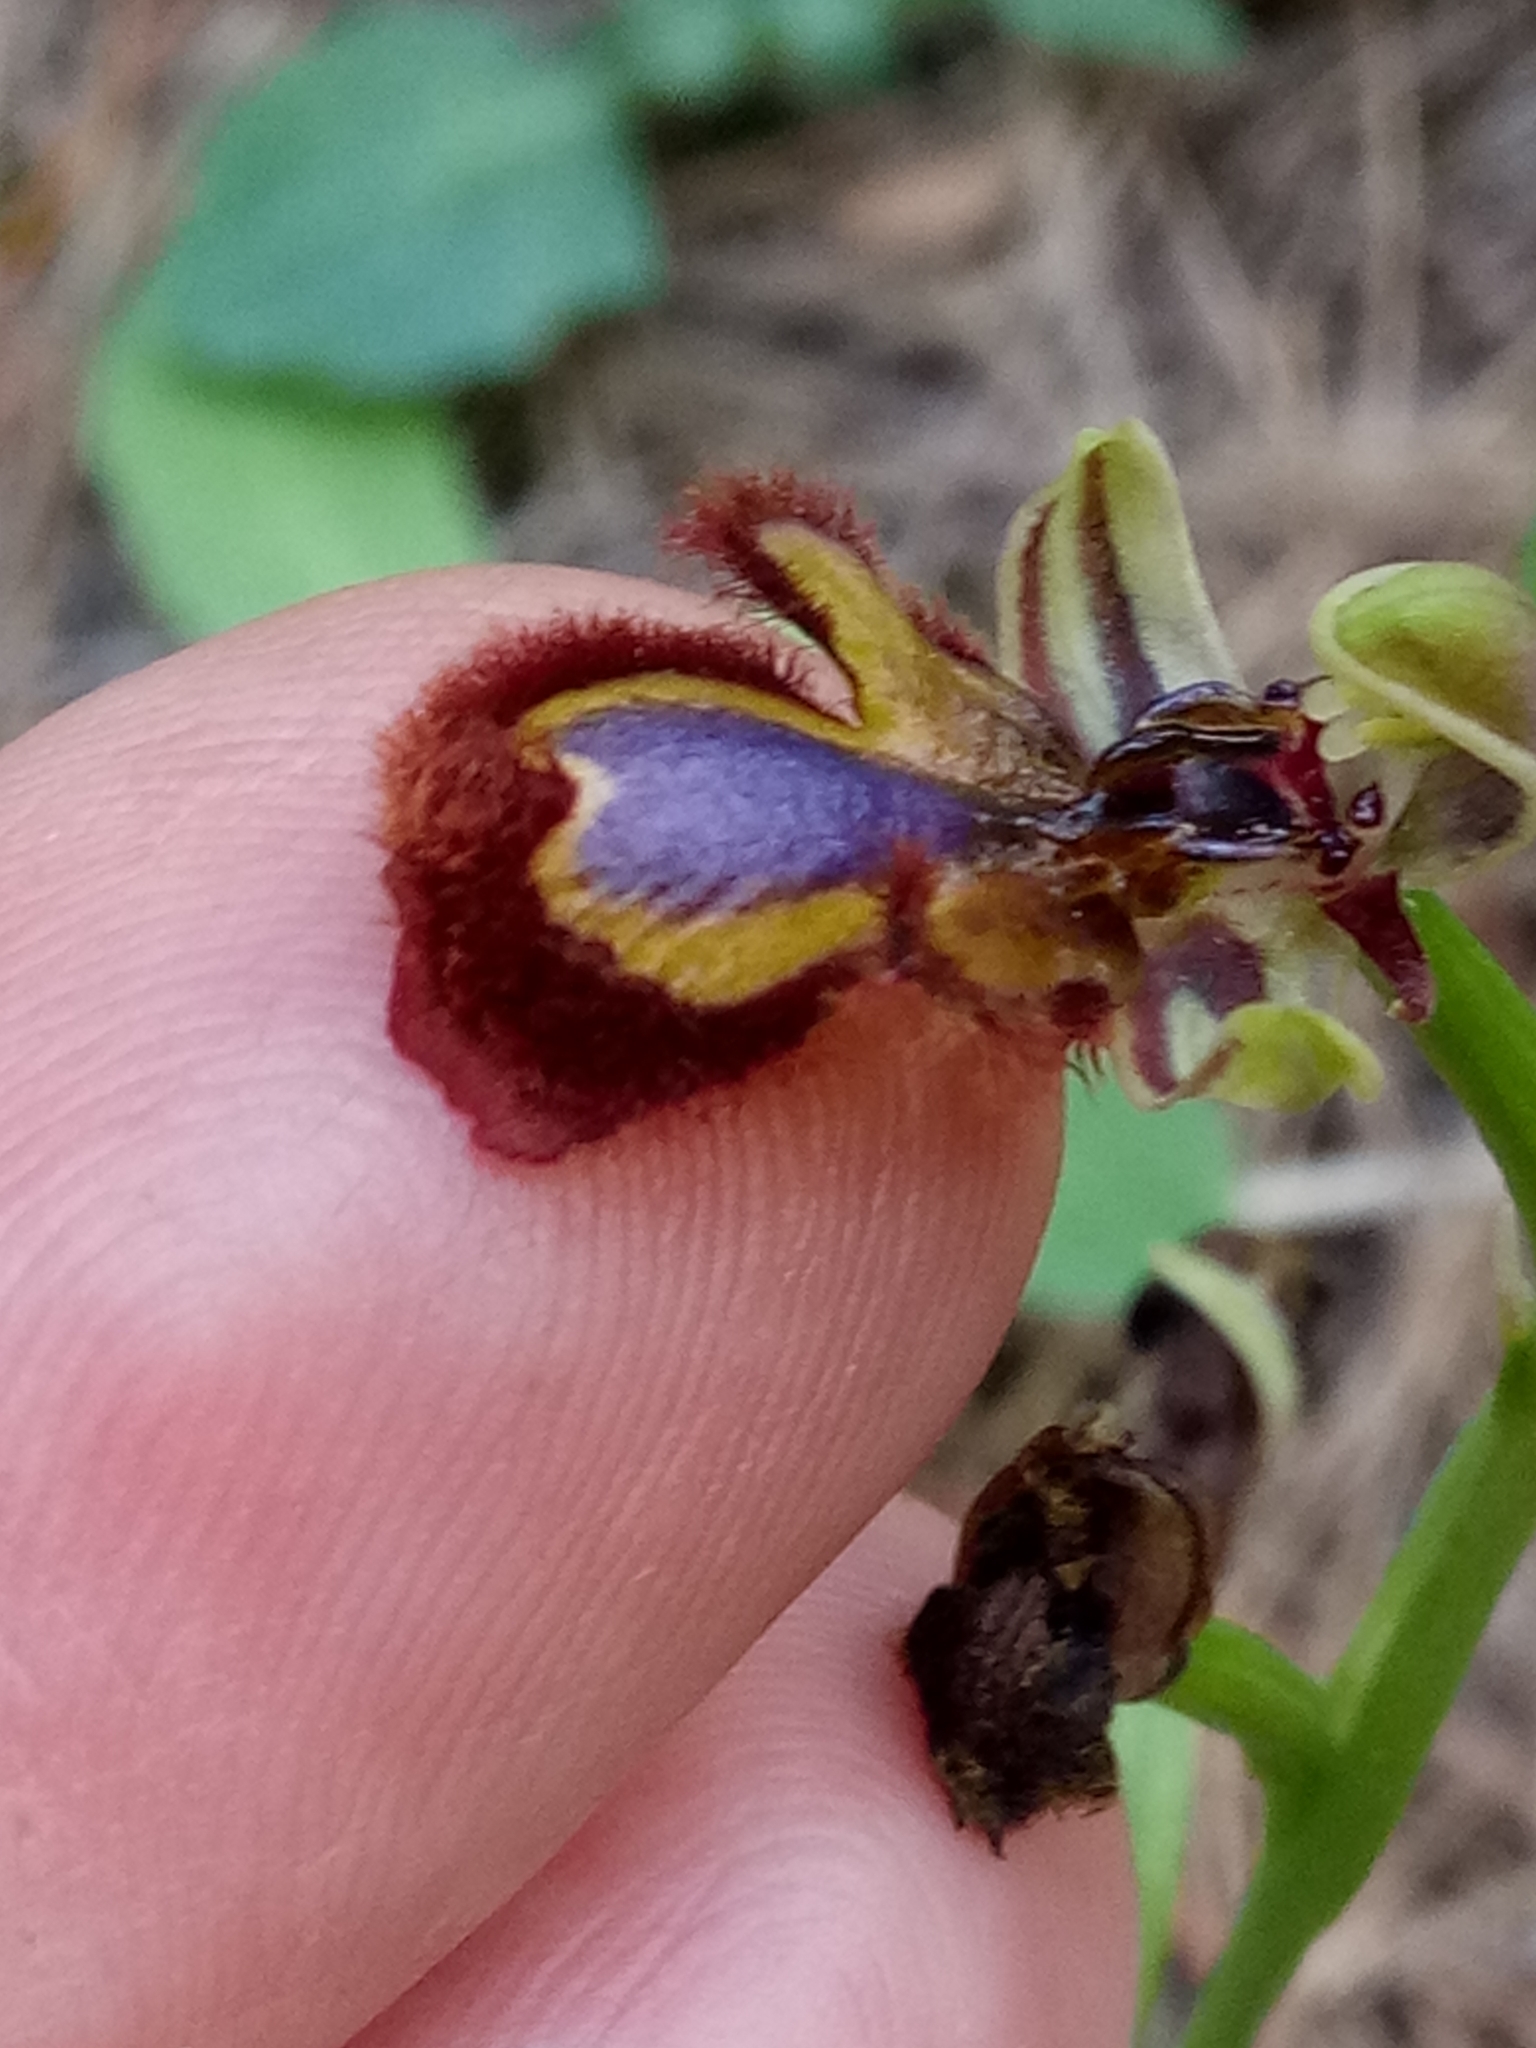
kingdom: Plantae
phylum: Tracheophyta
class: Liliopsida
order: Asparagales
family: Orchidaceae
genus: Ophrys
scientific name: Ophrys speculum
